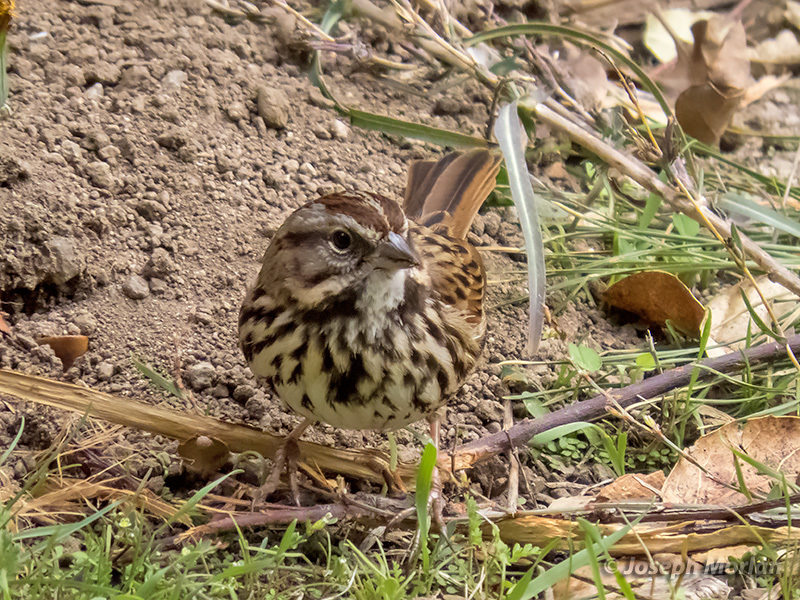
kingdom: Animalia
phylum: Chordata
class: Aves
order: Passeriformes
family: Passerellidae
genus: Melospiza
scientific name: Melospiza melodia
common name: Song sparrow
